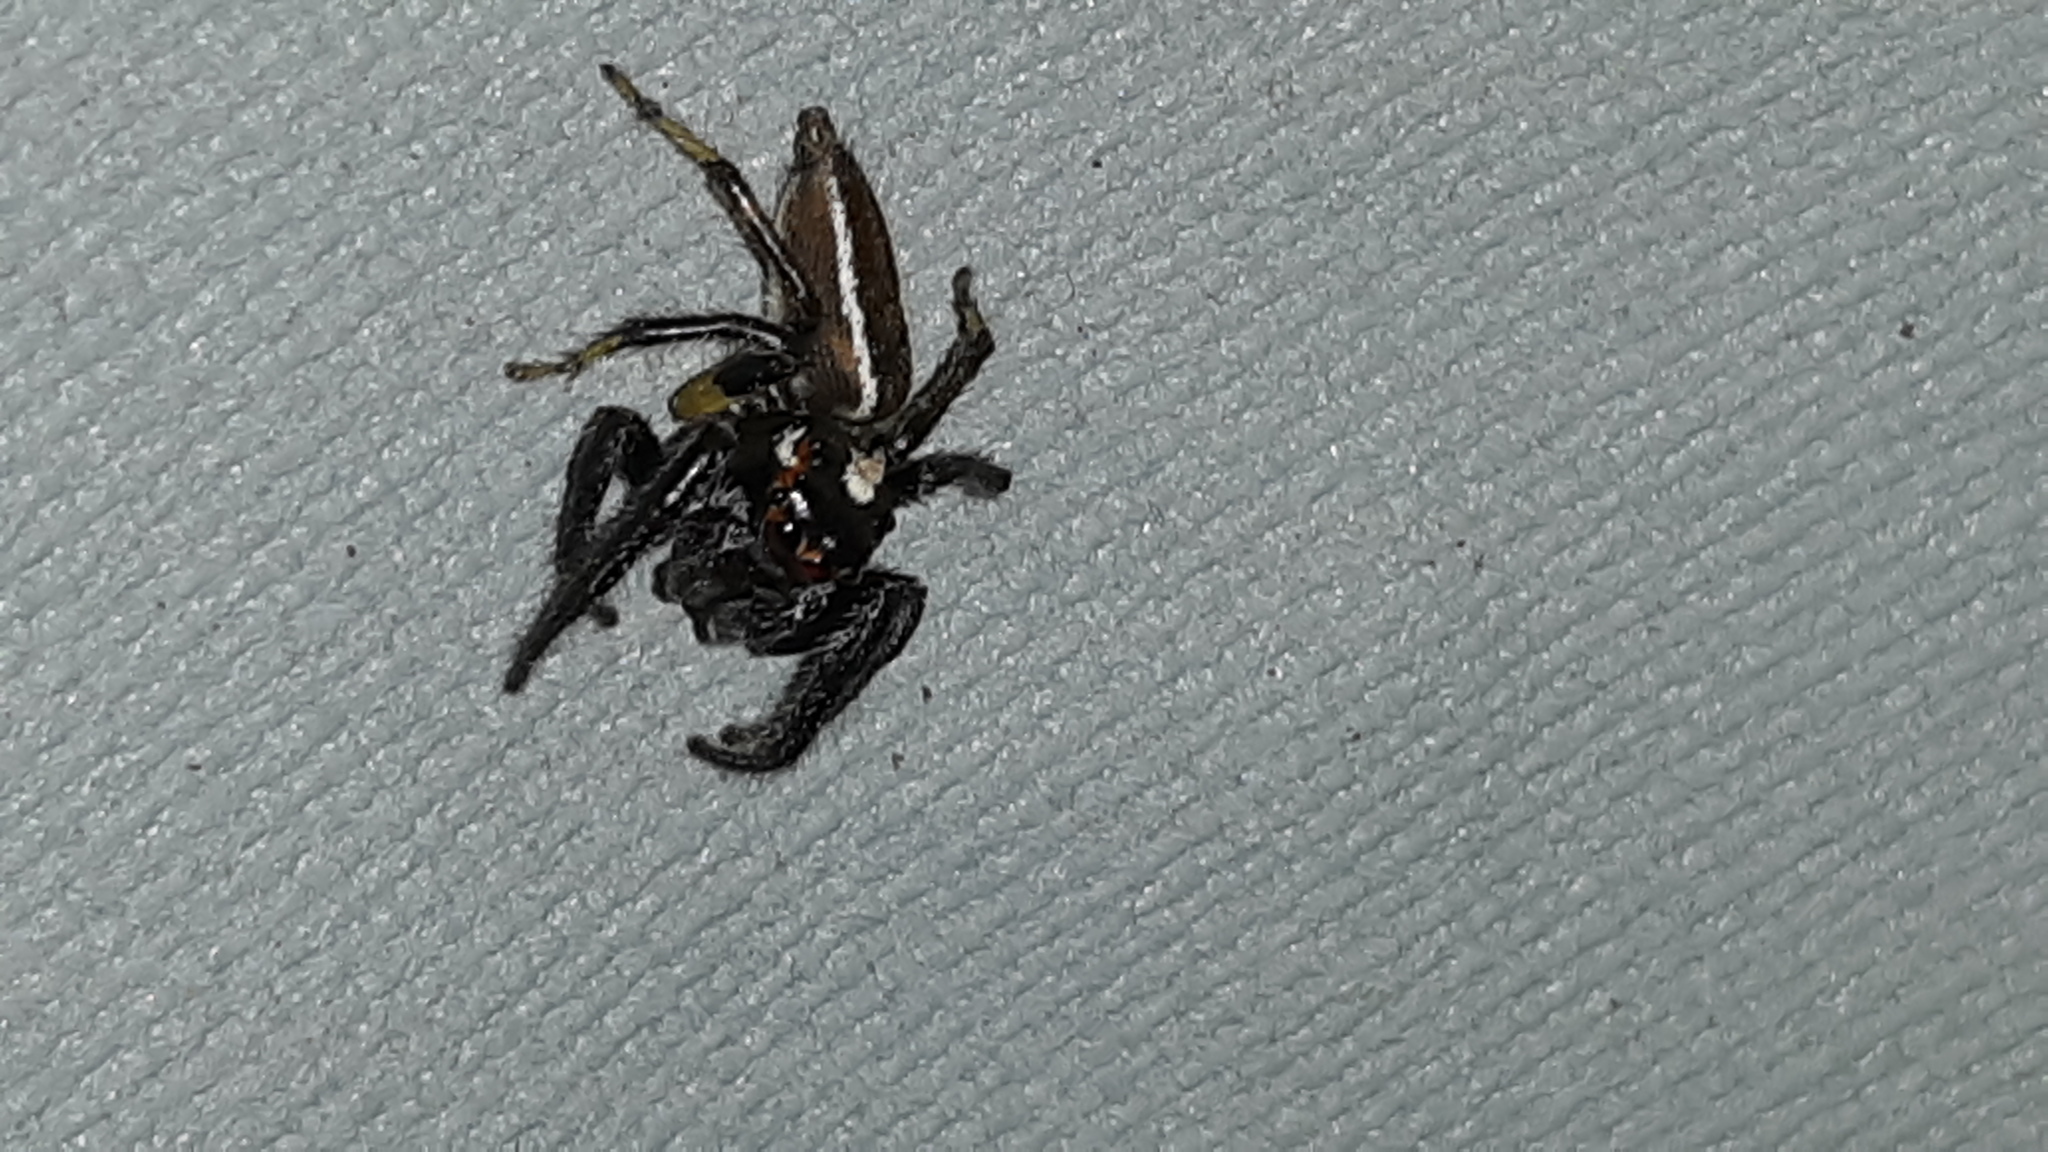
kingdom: Animalia
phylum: Arthropoda
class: Arachnida
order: Araneae
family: Salticidae
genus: Colonus
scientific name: Colonus sylvanus
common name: Jumping spiders
